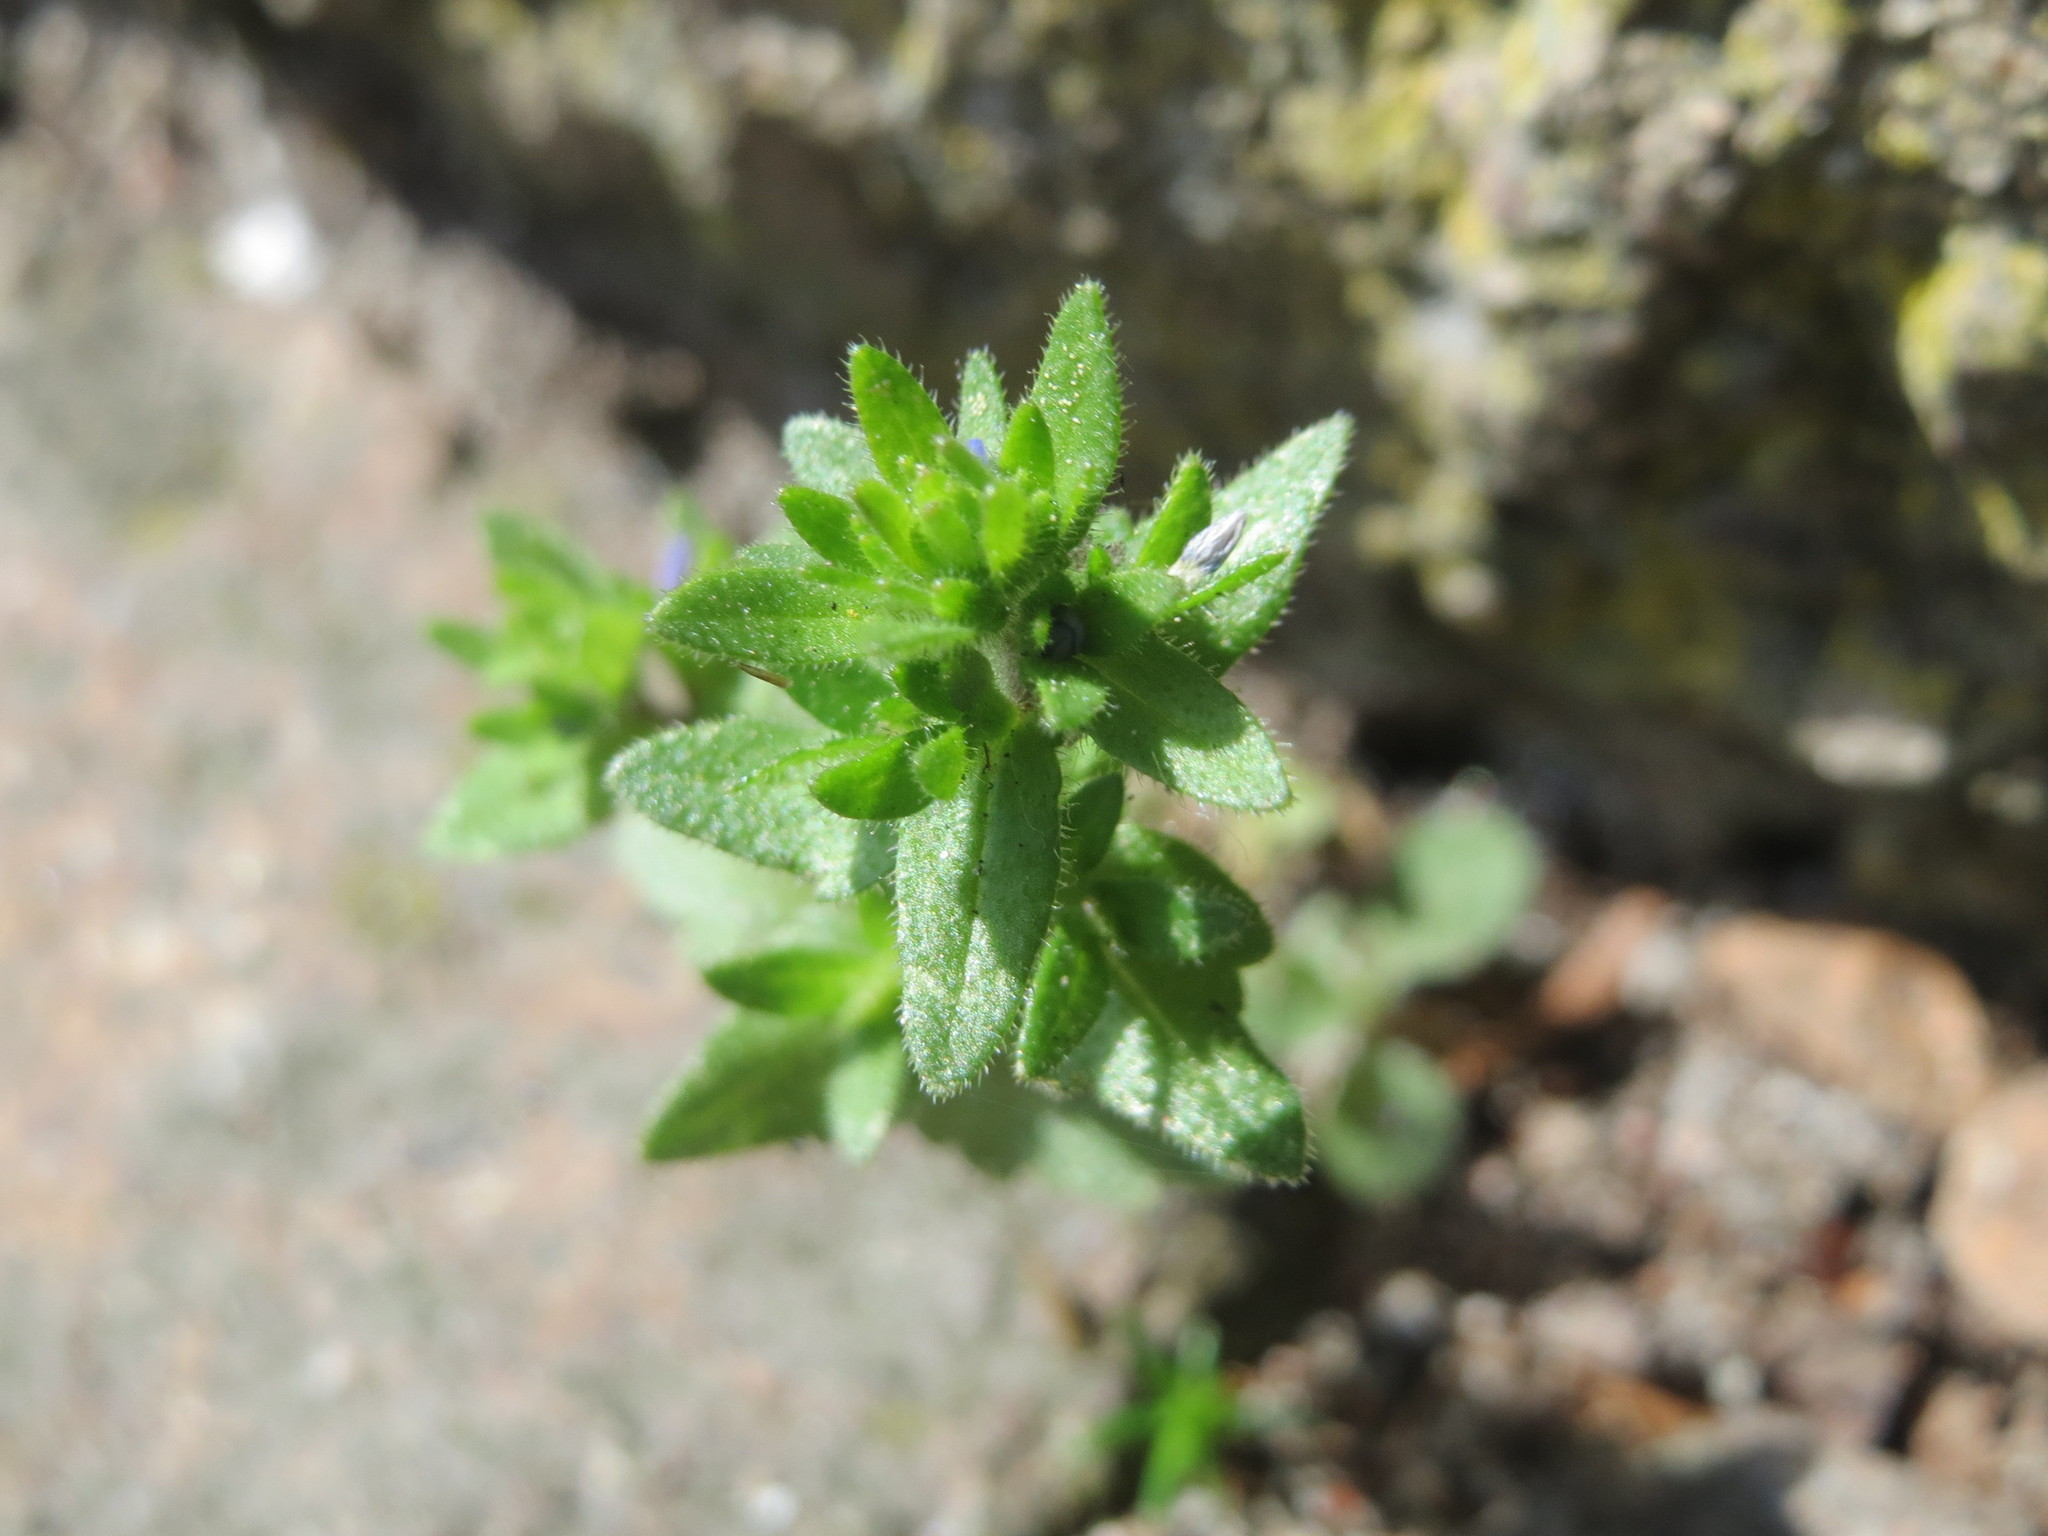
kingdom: Plantae
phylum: Tracheophyta
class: Magnoliopsida
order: Lamiales
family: Plantaginaceae
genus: Veronica
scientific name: Veronica arvensis
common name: Corn speedwell
